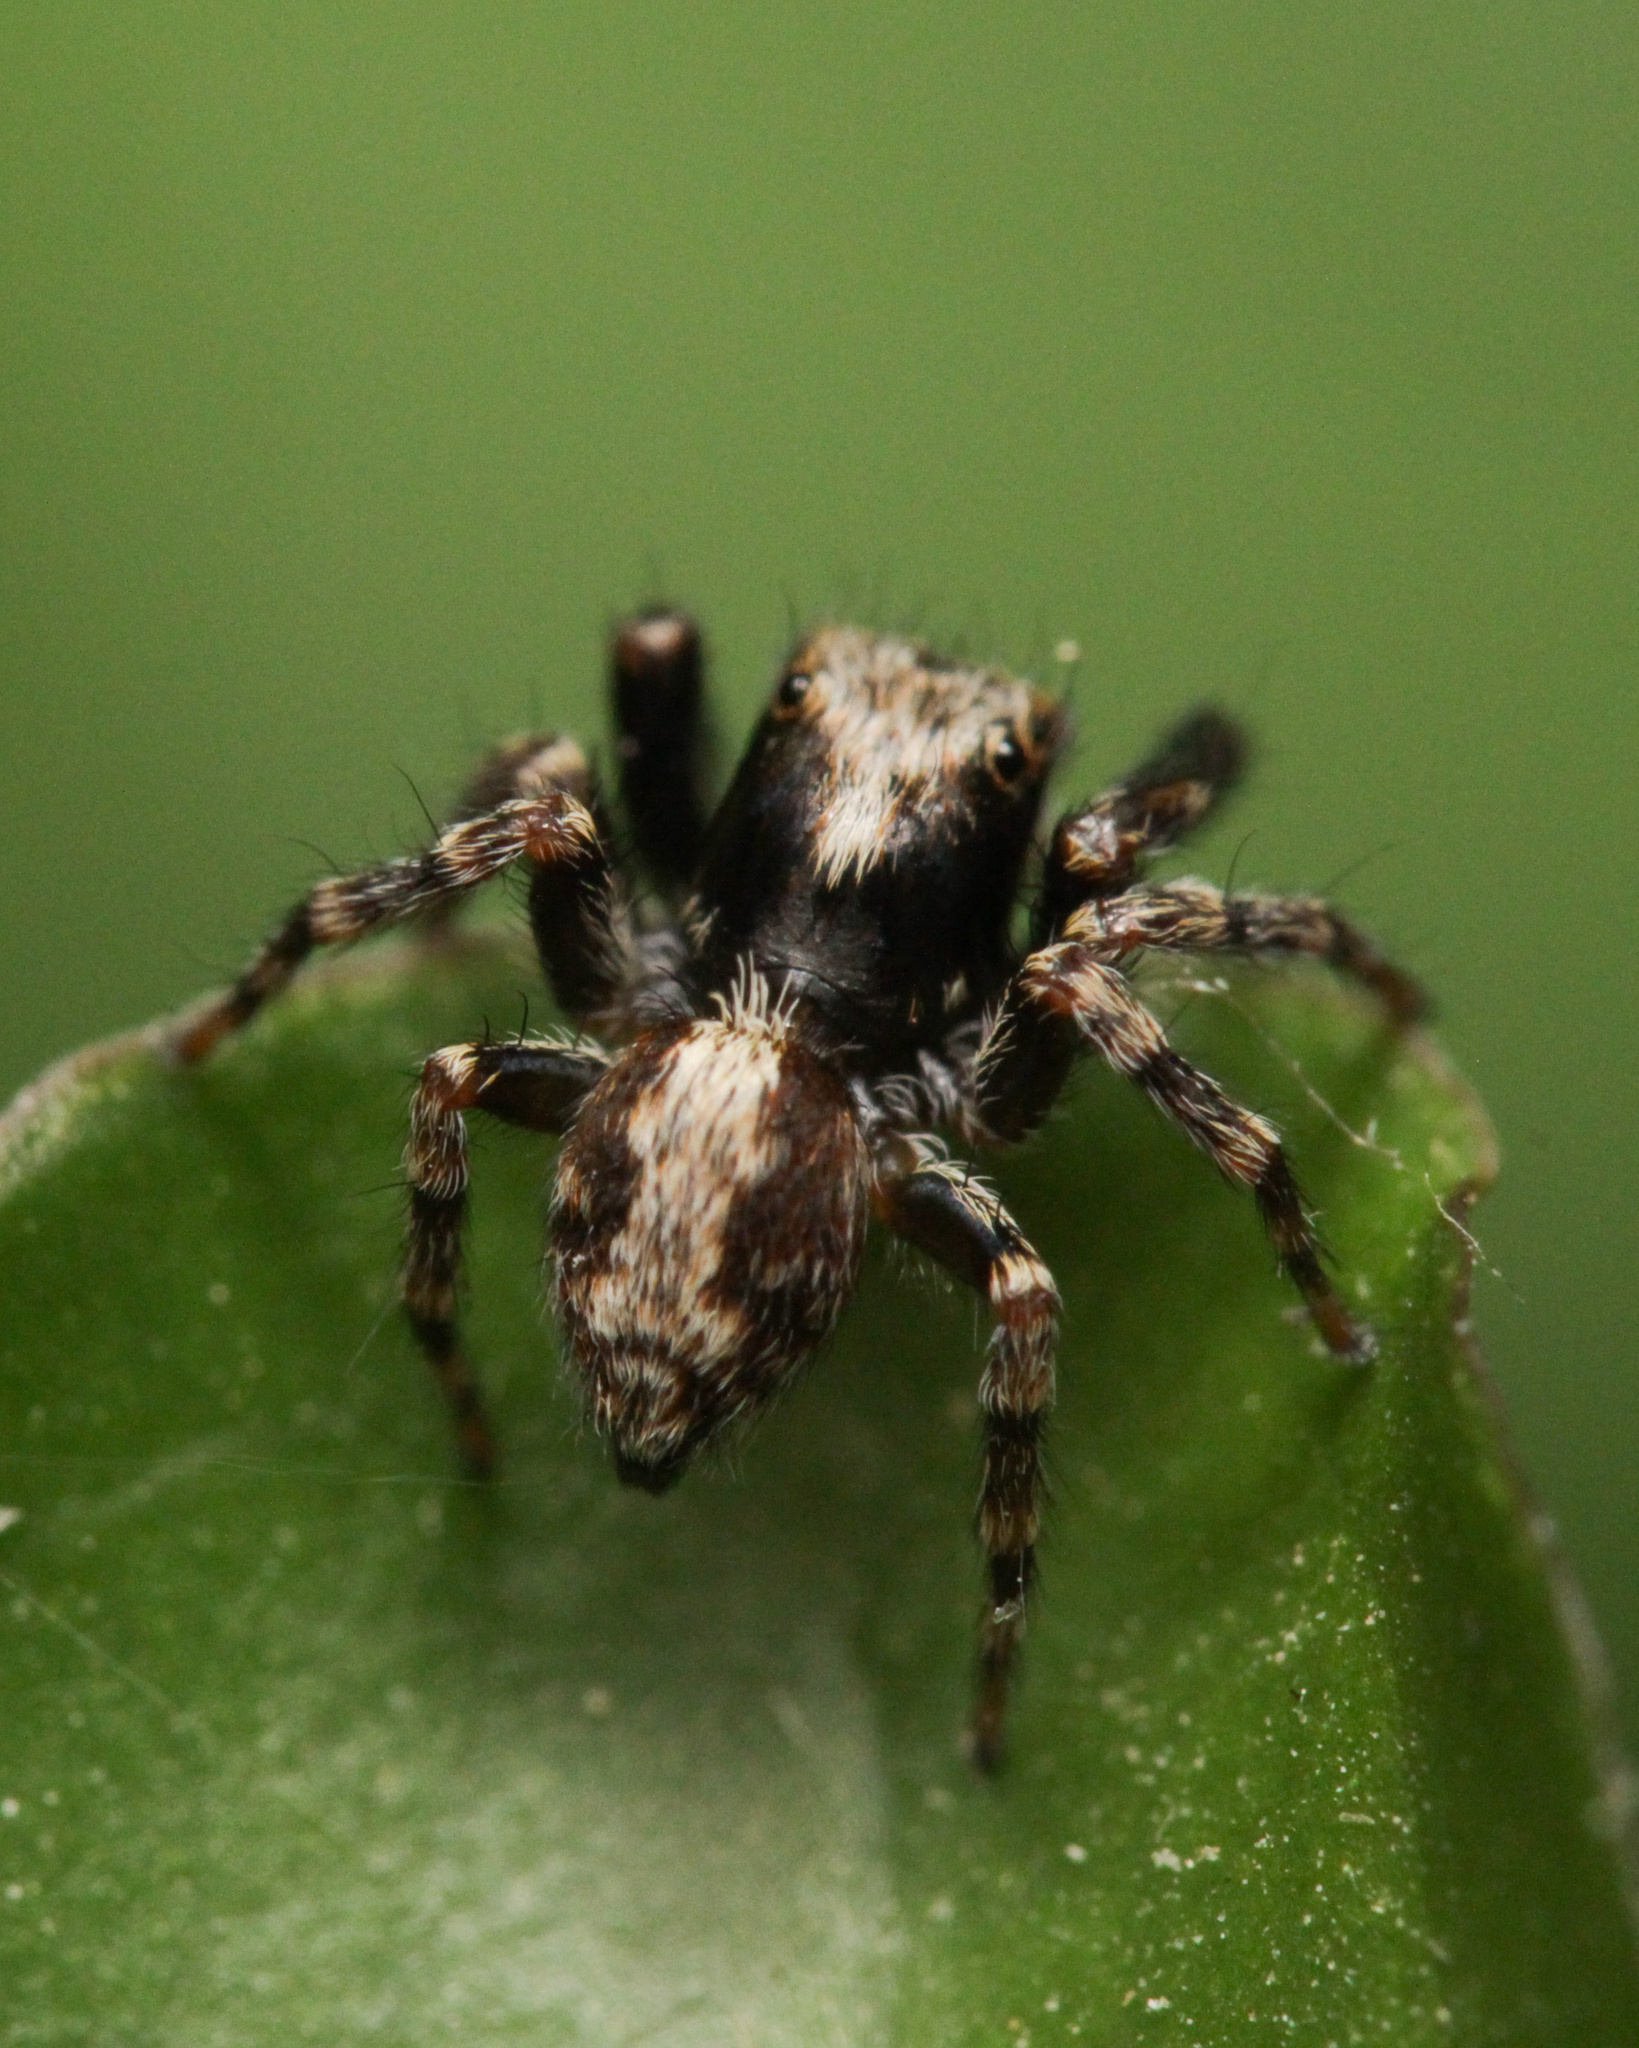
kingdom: Animalia
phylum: Arthropoda
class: Arachnida
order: Araneae
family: Salticidae
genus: Pseudeuophrys
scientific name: Pseudeuophrys lanigera
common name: Jumping spider
